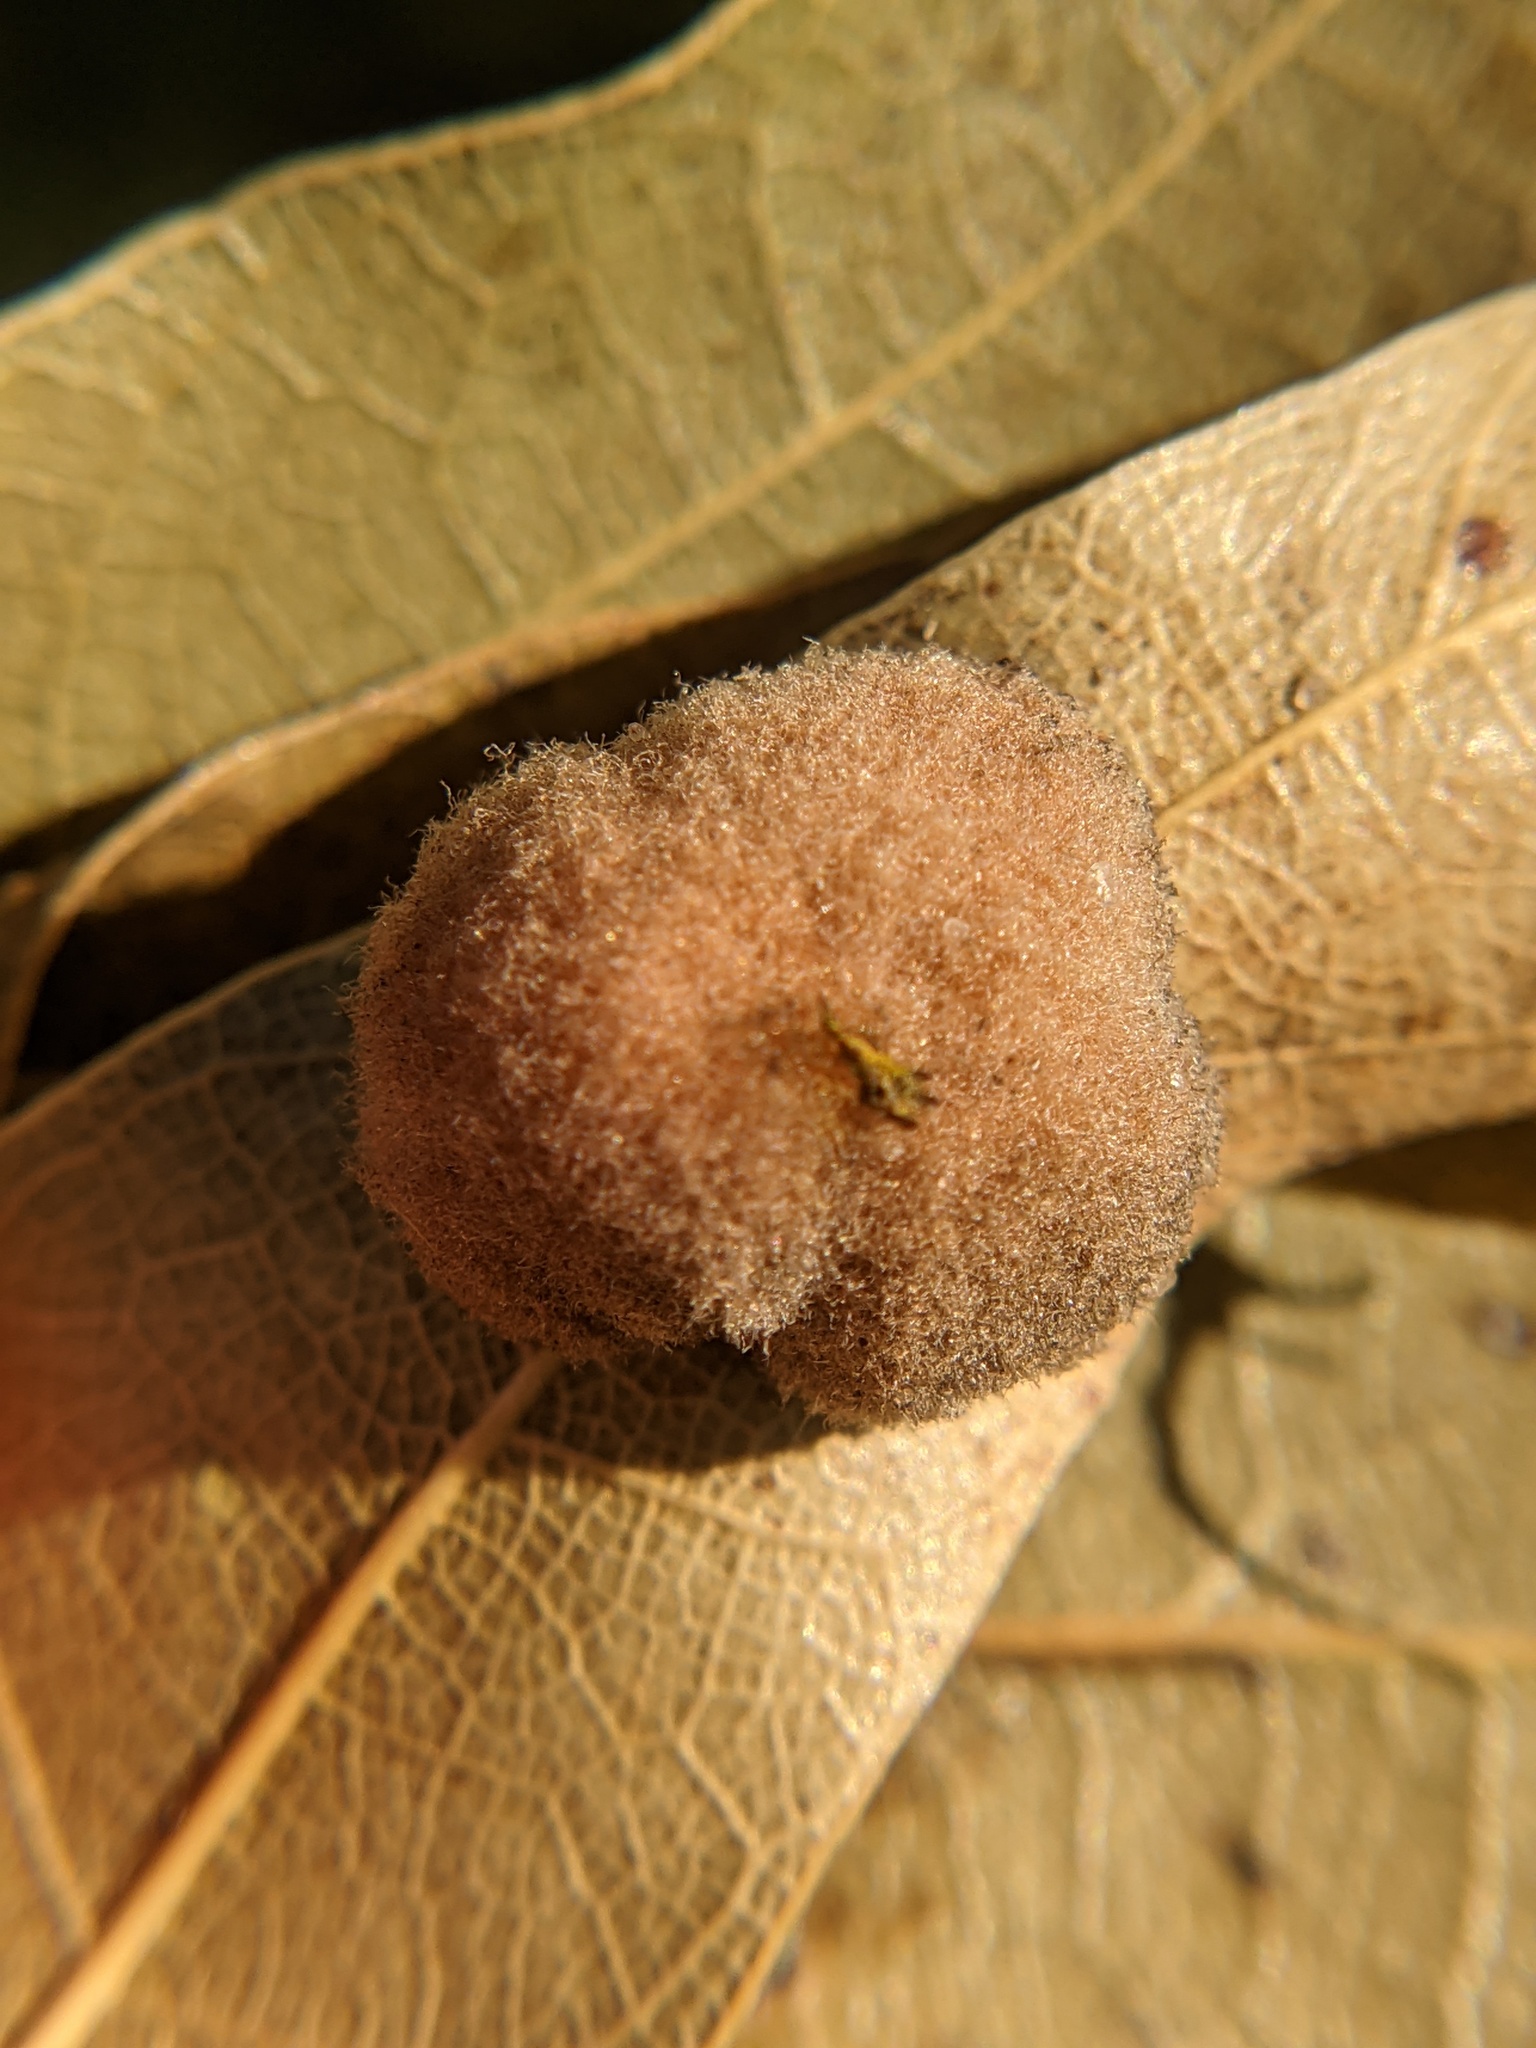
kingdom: Animalia
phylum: Arthropoda
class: Insecta
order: Hymenoptera
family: Cynipidae
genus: Callirhytis
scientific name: Callirhytis
